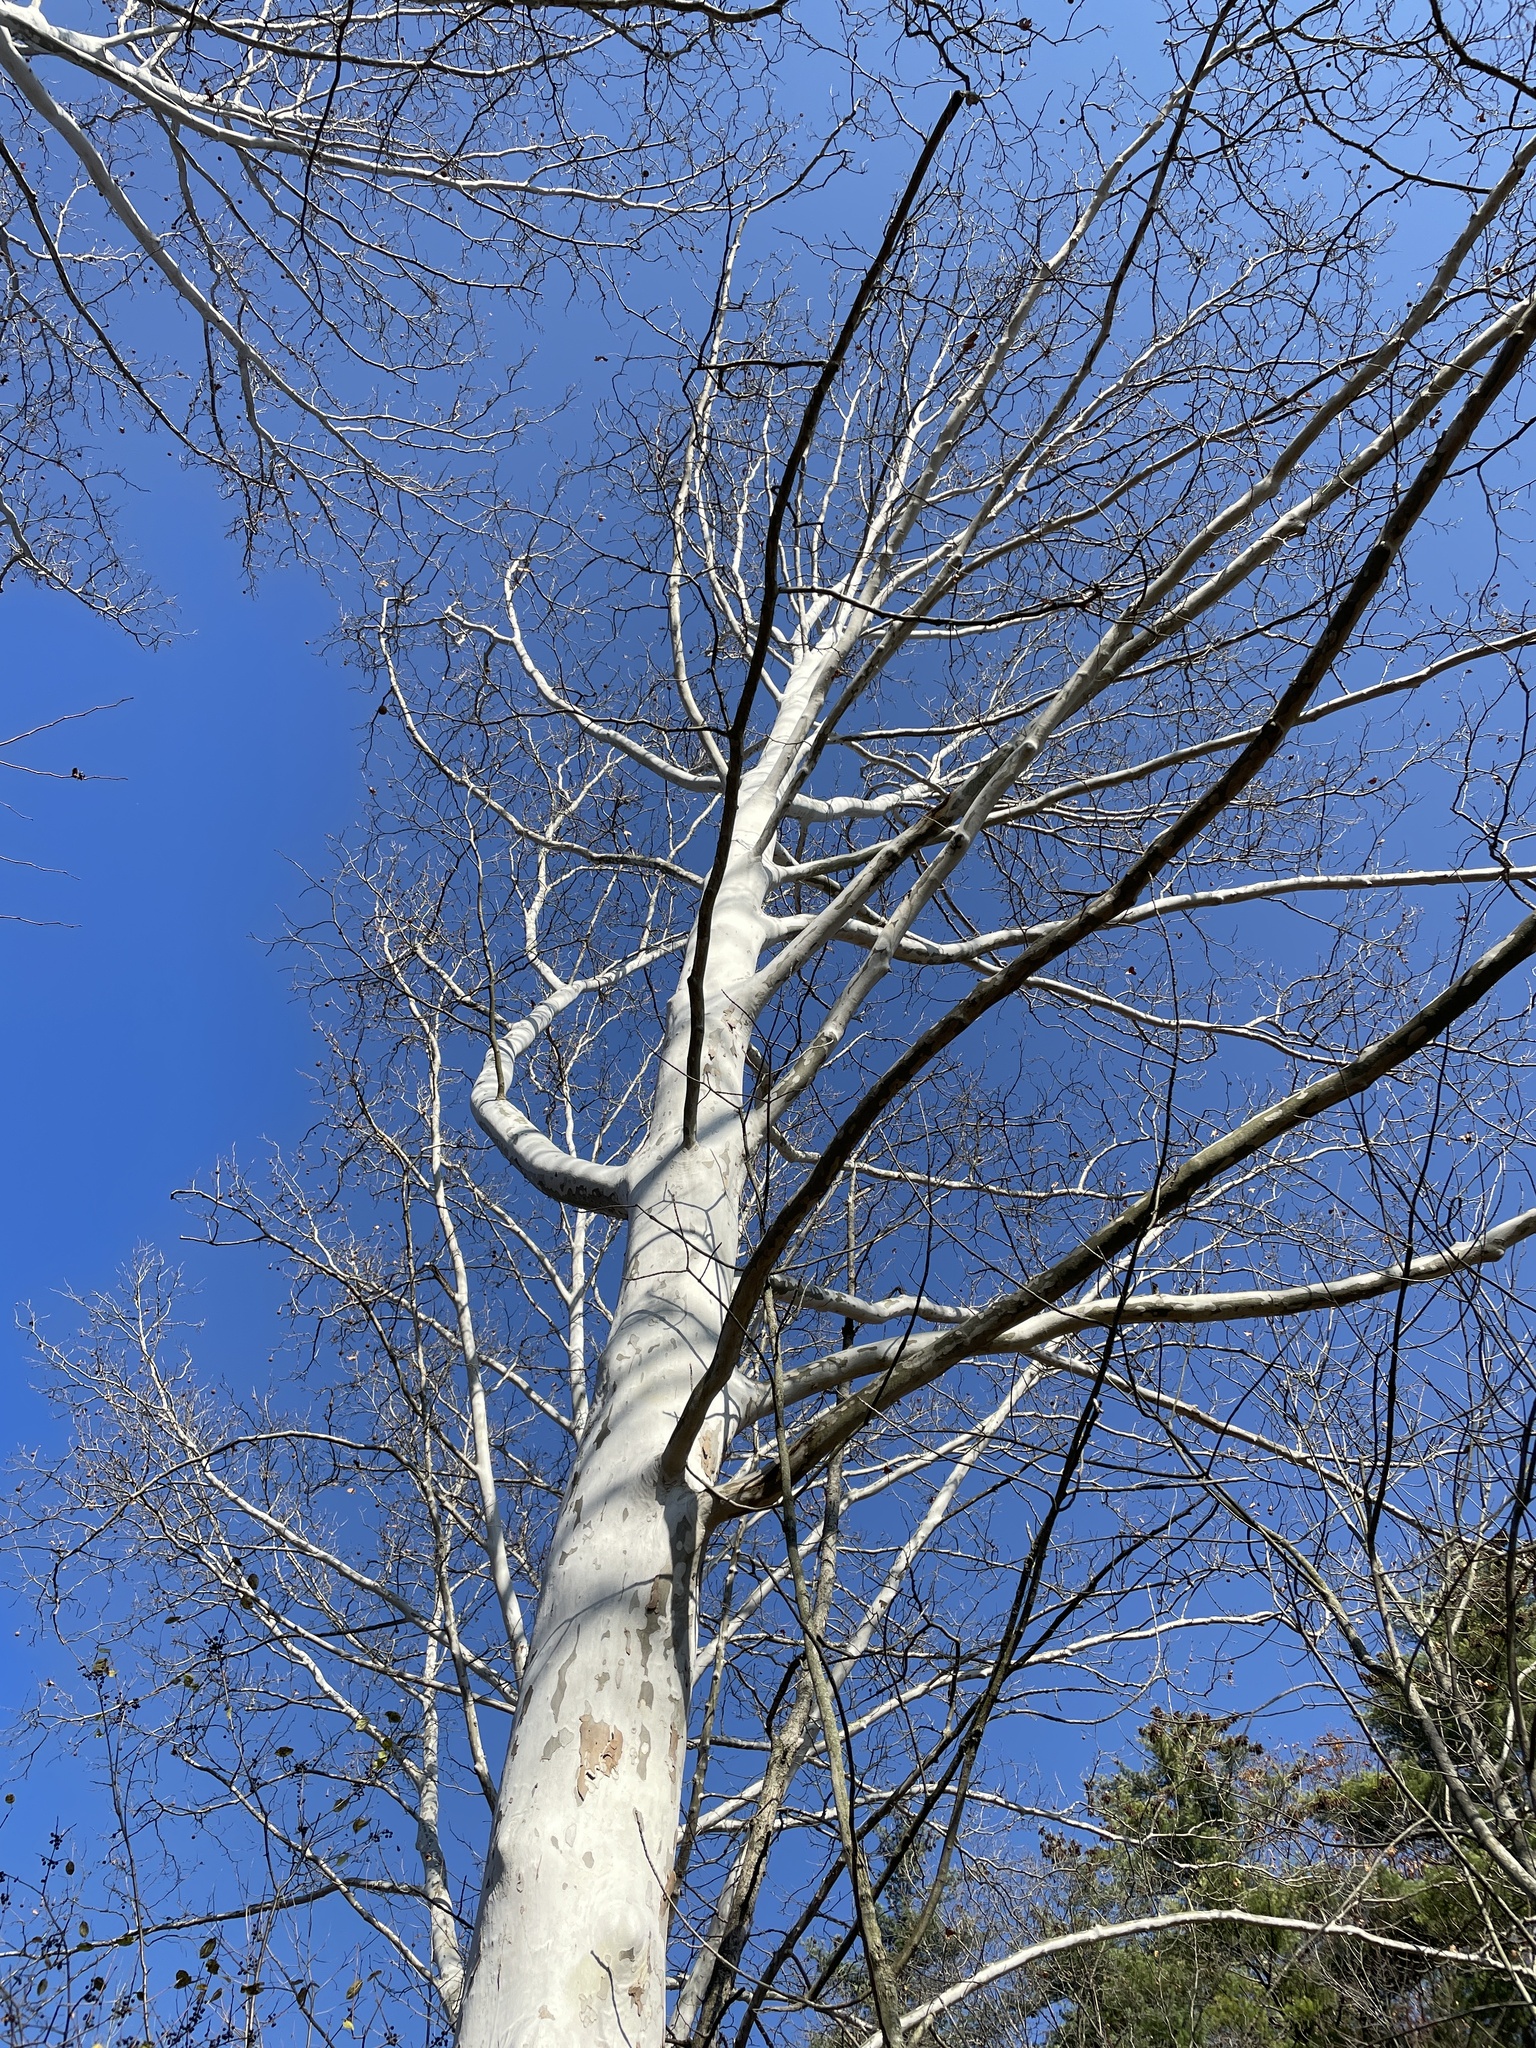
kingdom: Plantae
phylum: Tracheophyta
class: Magnoliopsida
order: Proteales
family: Platanaceae
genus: Platanus
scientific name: Platanus occidentalis
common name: American sycamore
